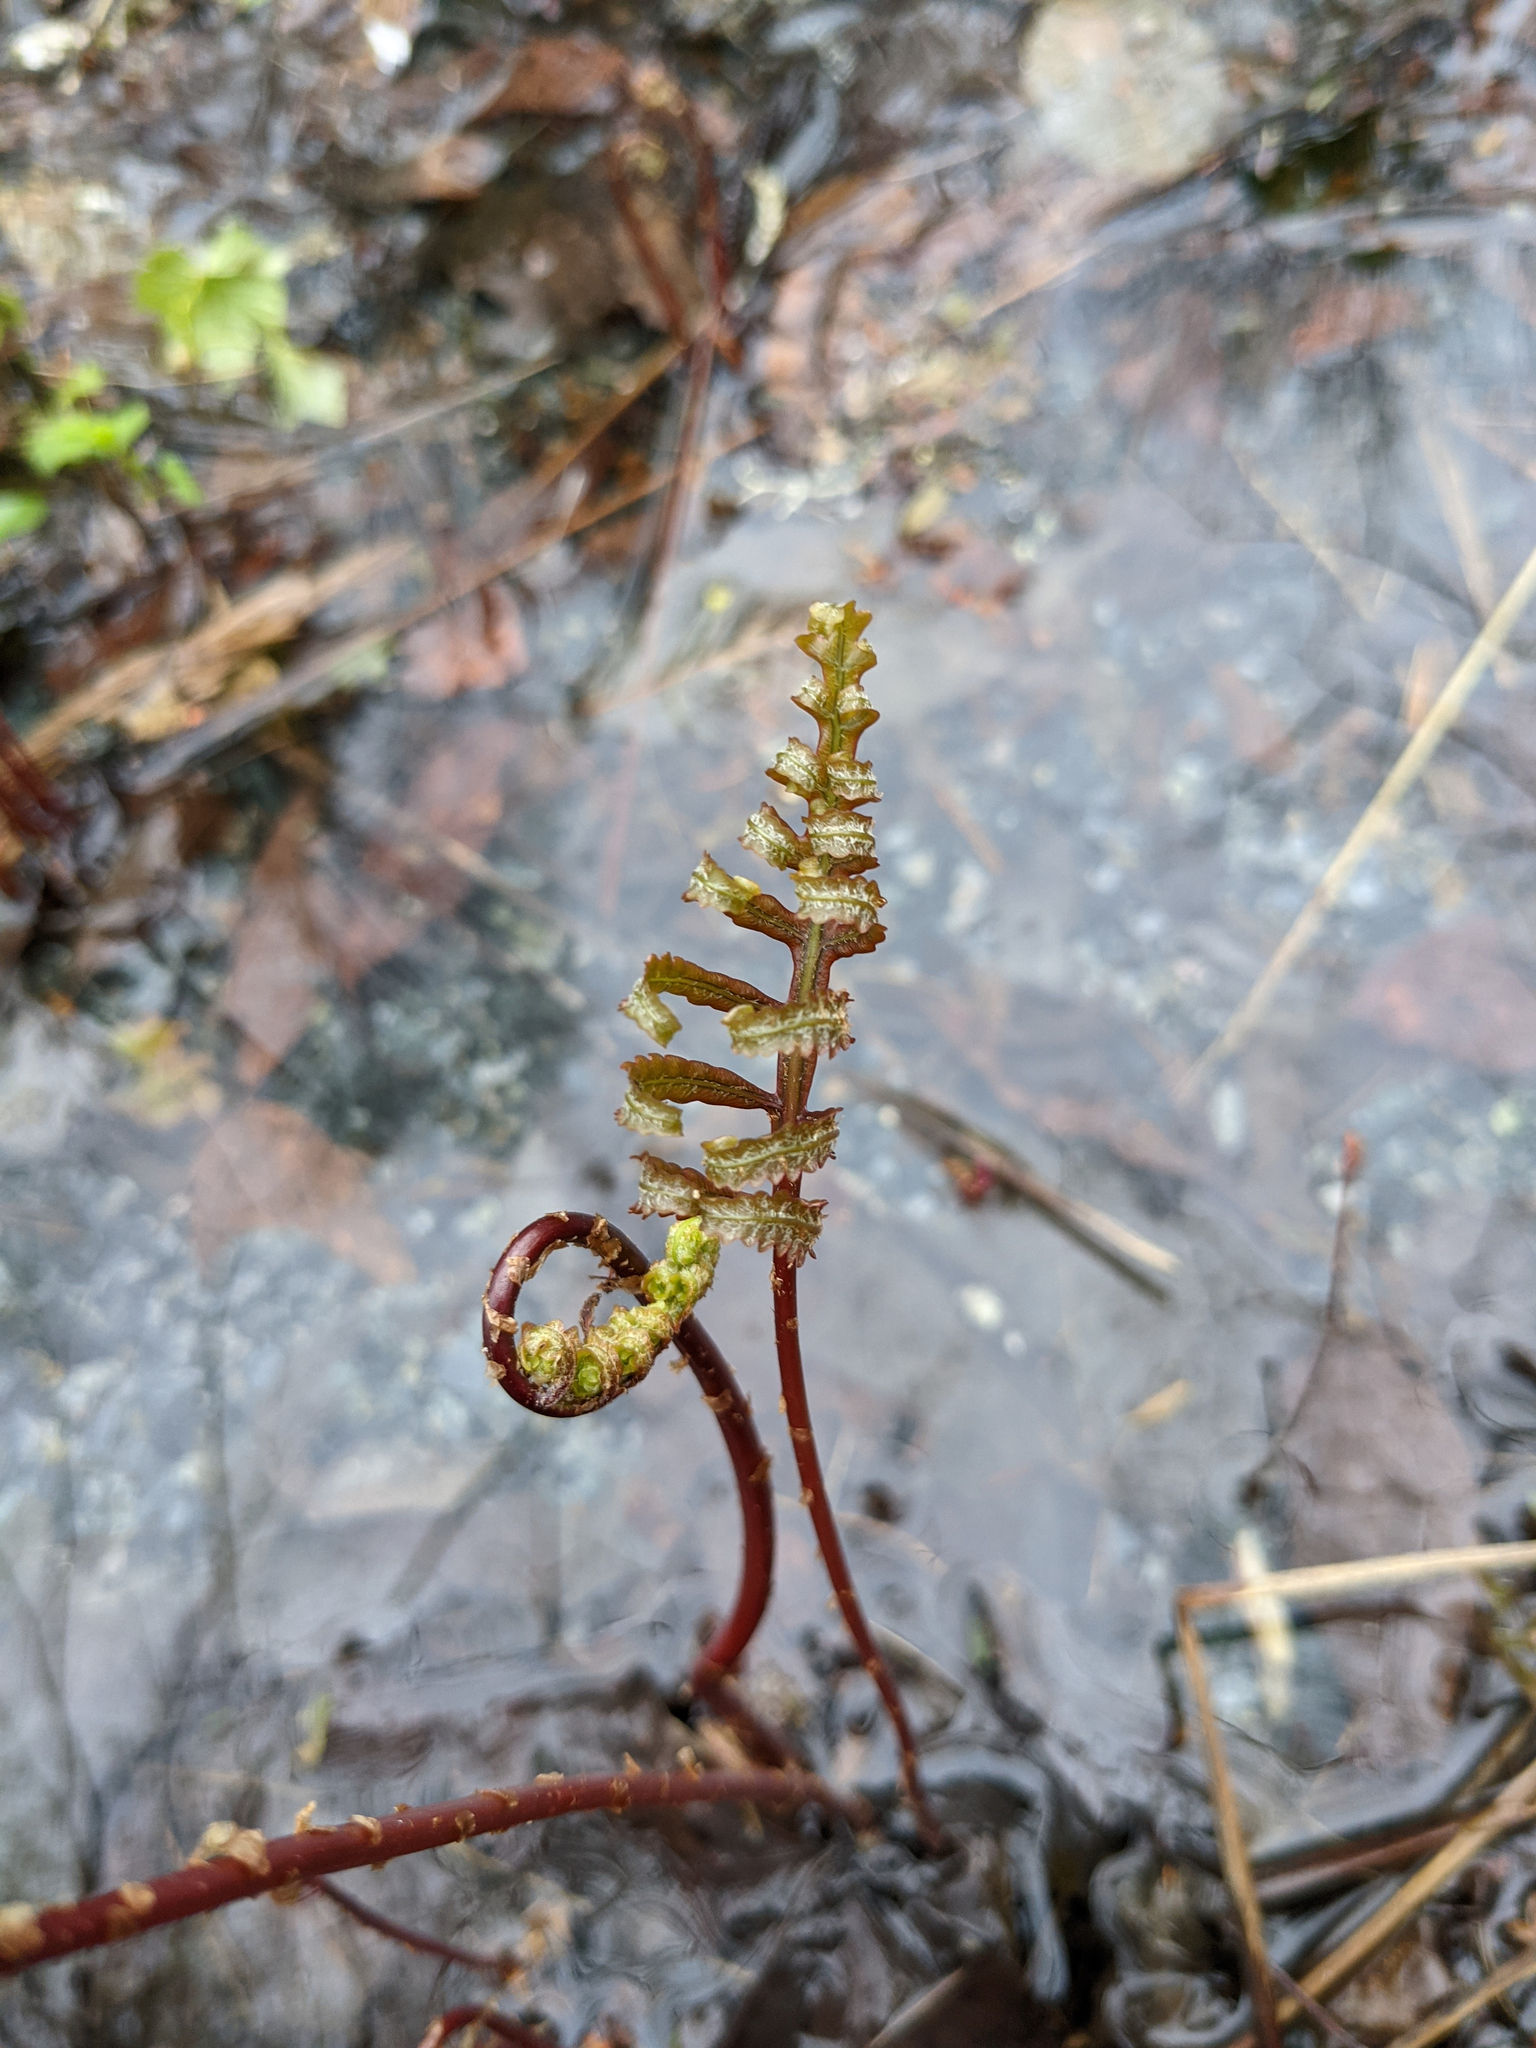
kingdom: Plantae
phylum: Tracheophyta
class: Polypodiopsida
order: Polypodiales
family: Onocleaceae
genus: Onoclea
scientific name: Onoclea sensibilis
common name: Sensitive fern
